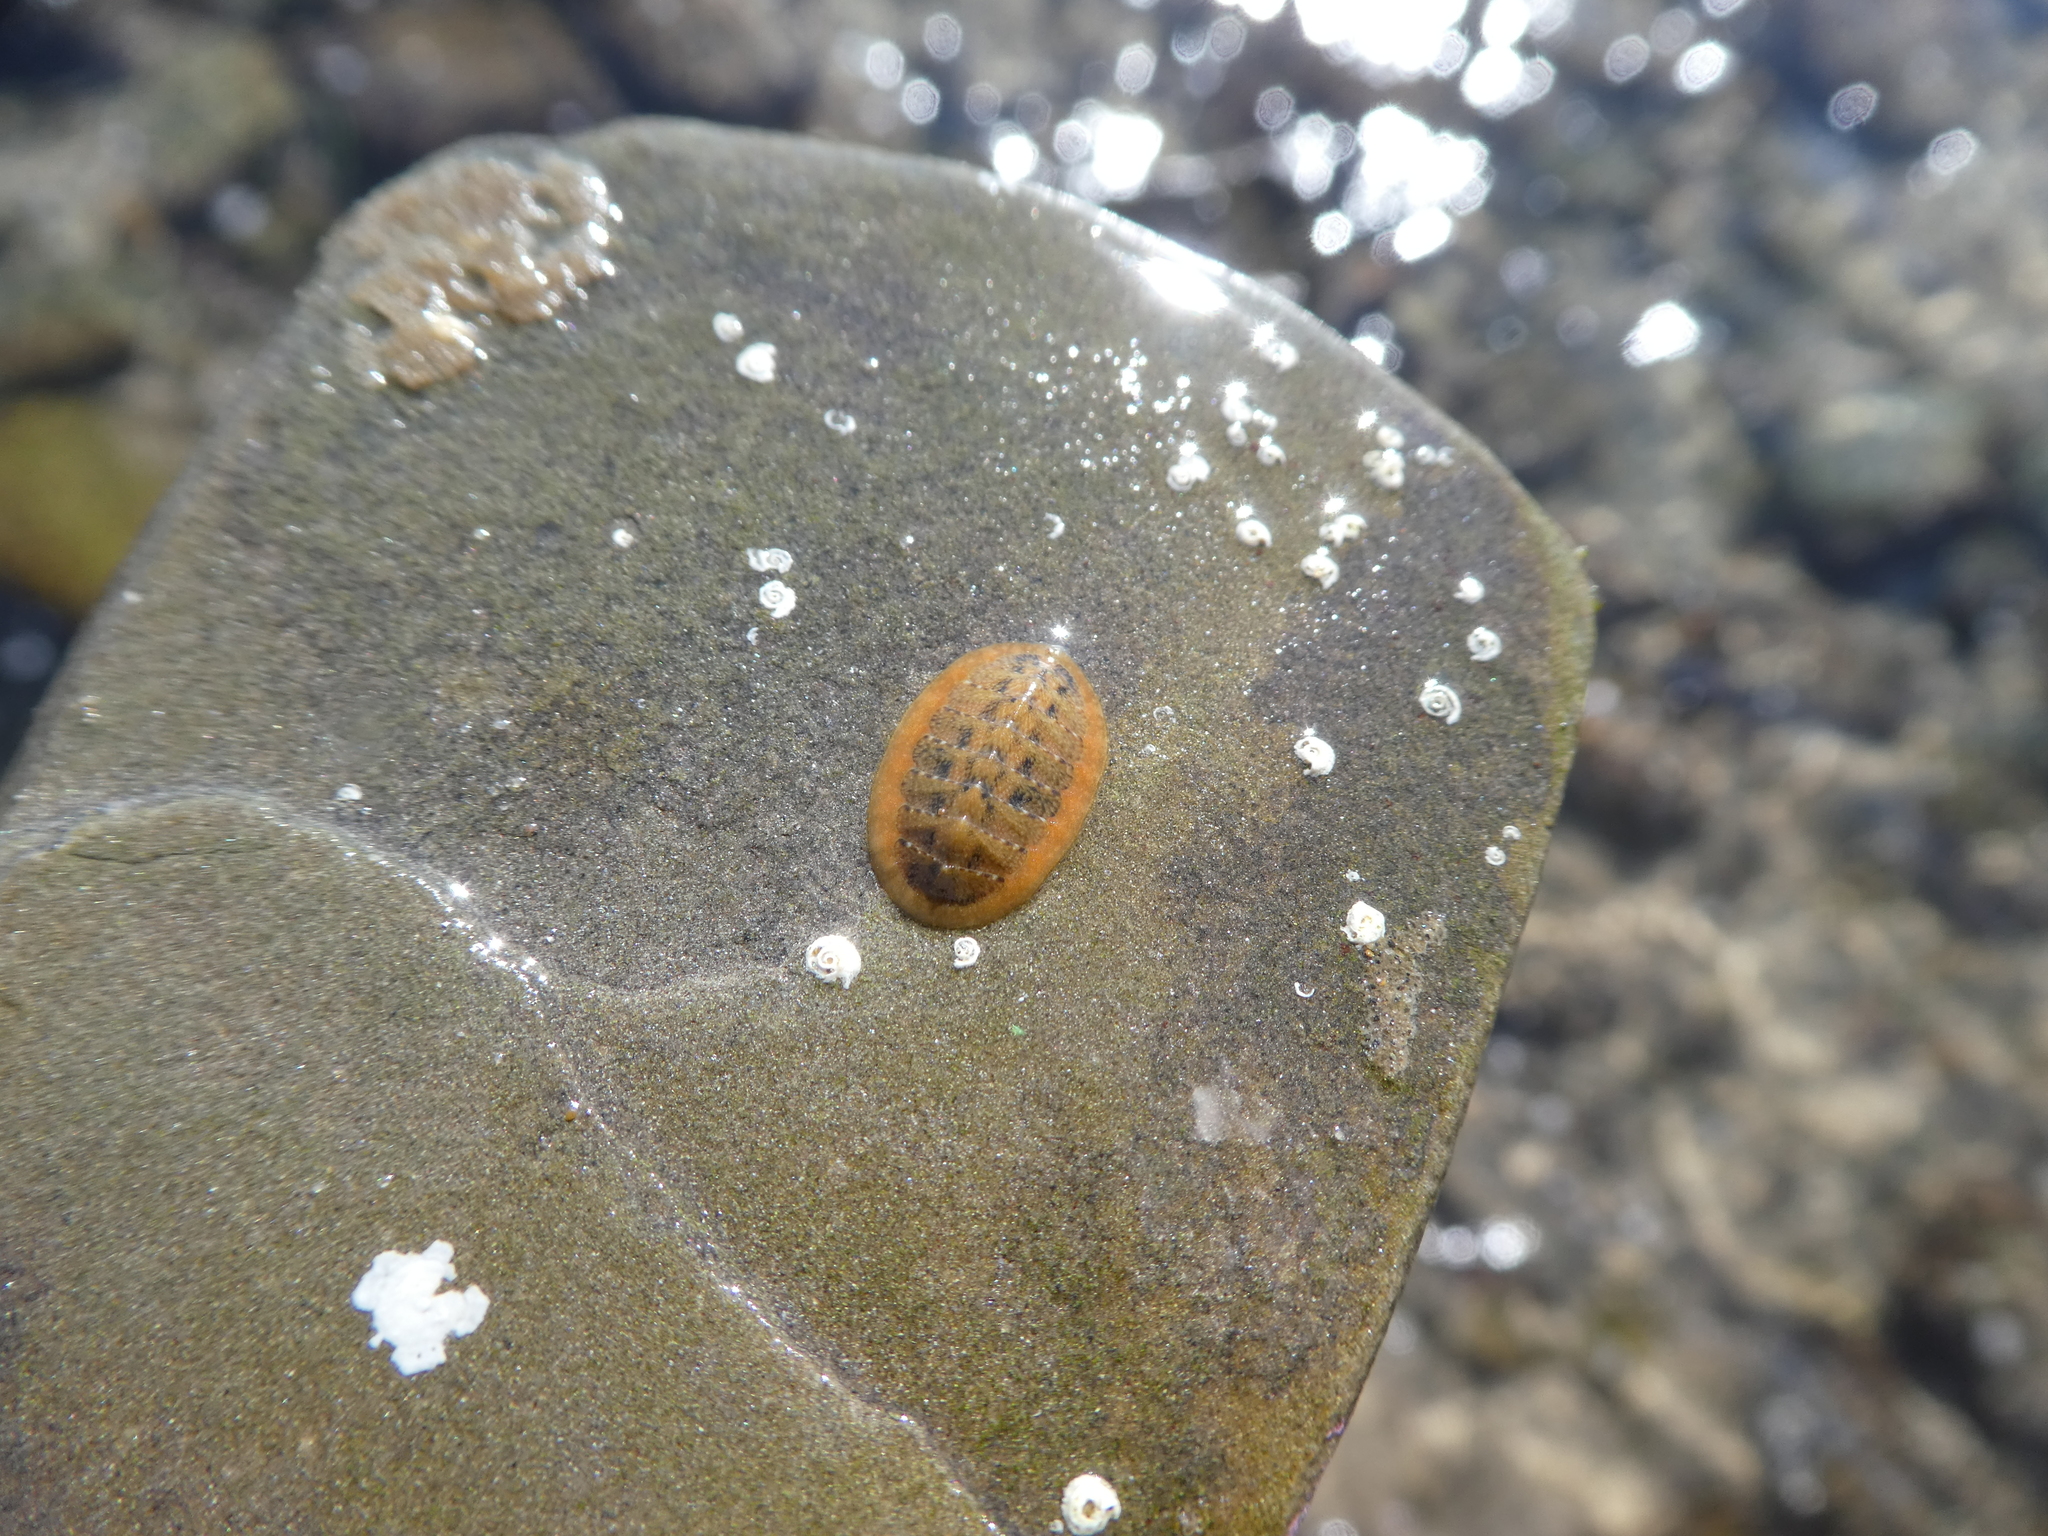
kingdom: Animalia
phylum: Mollusca
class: Polyplacophora
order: Chitonida
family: Tonicellidae
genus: Cyanoplax
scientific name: Cyanoplax keepiana
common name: Keep's chiton
